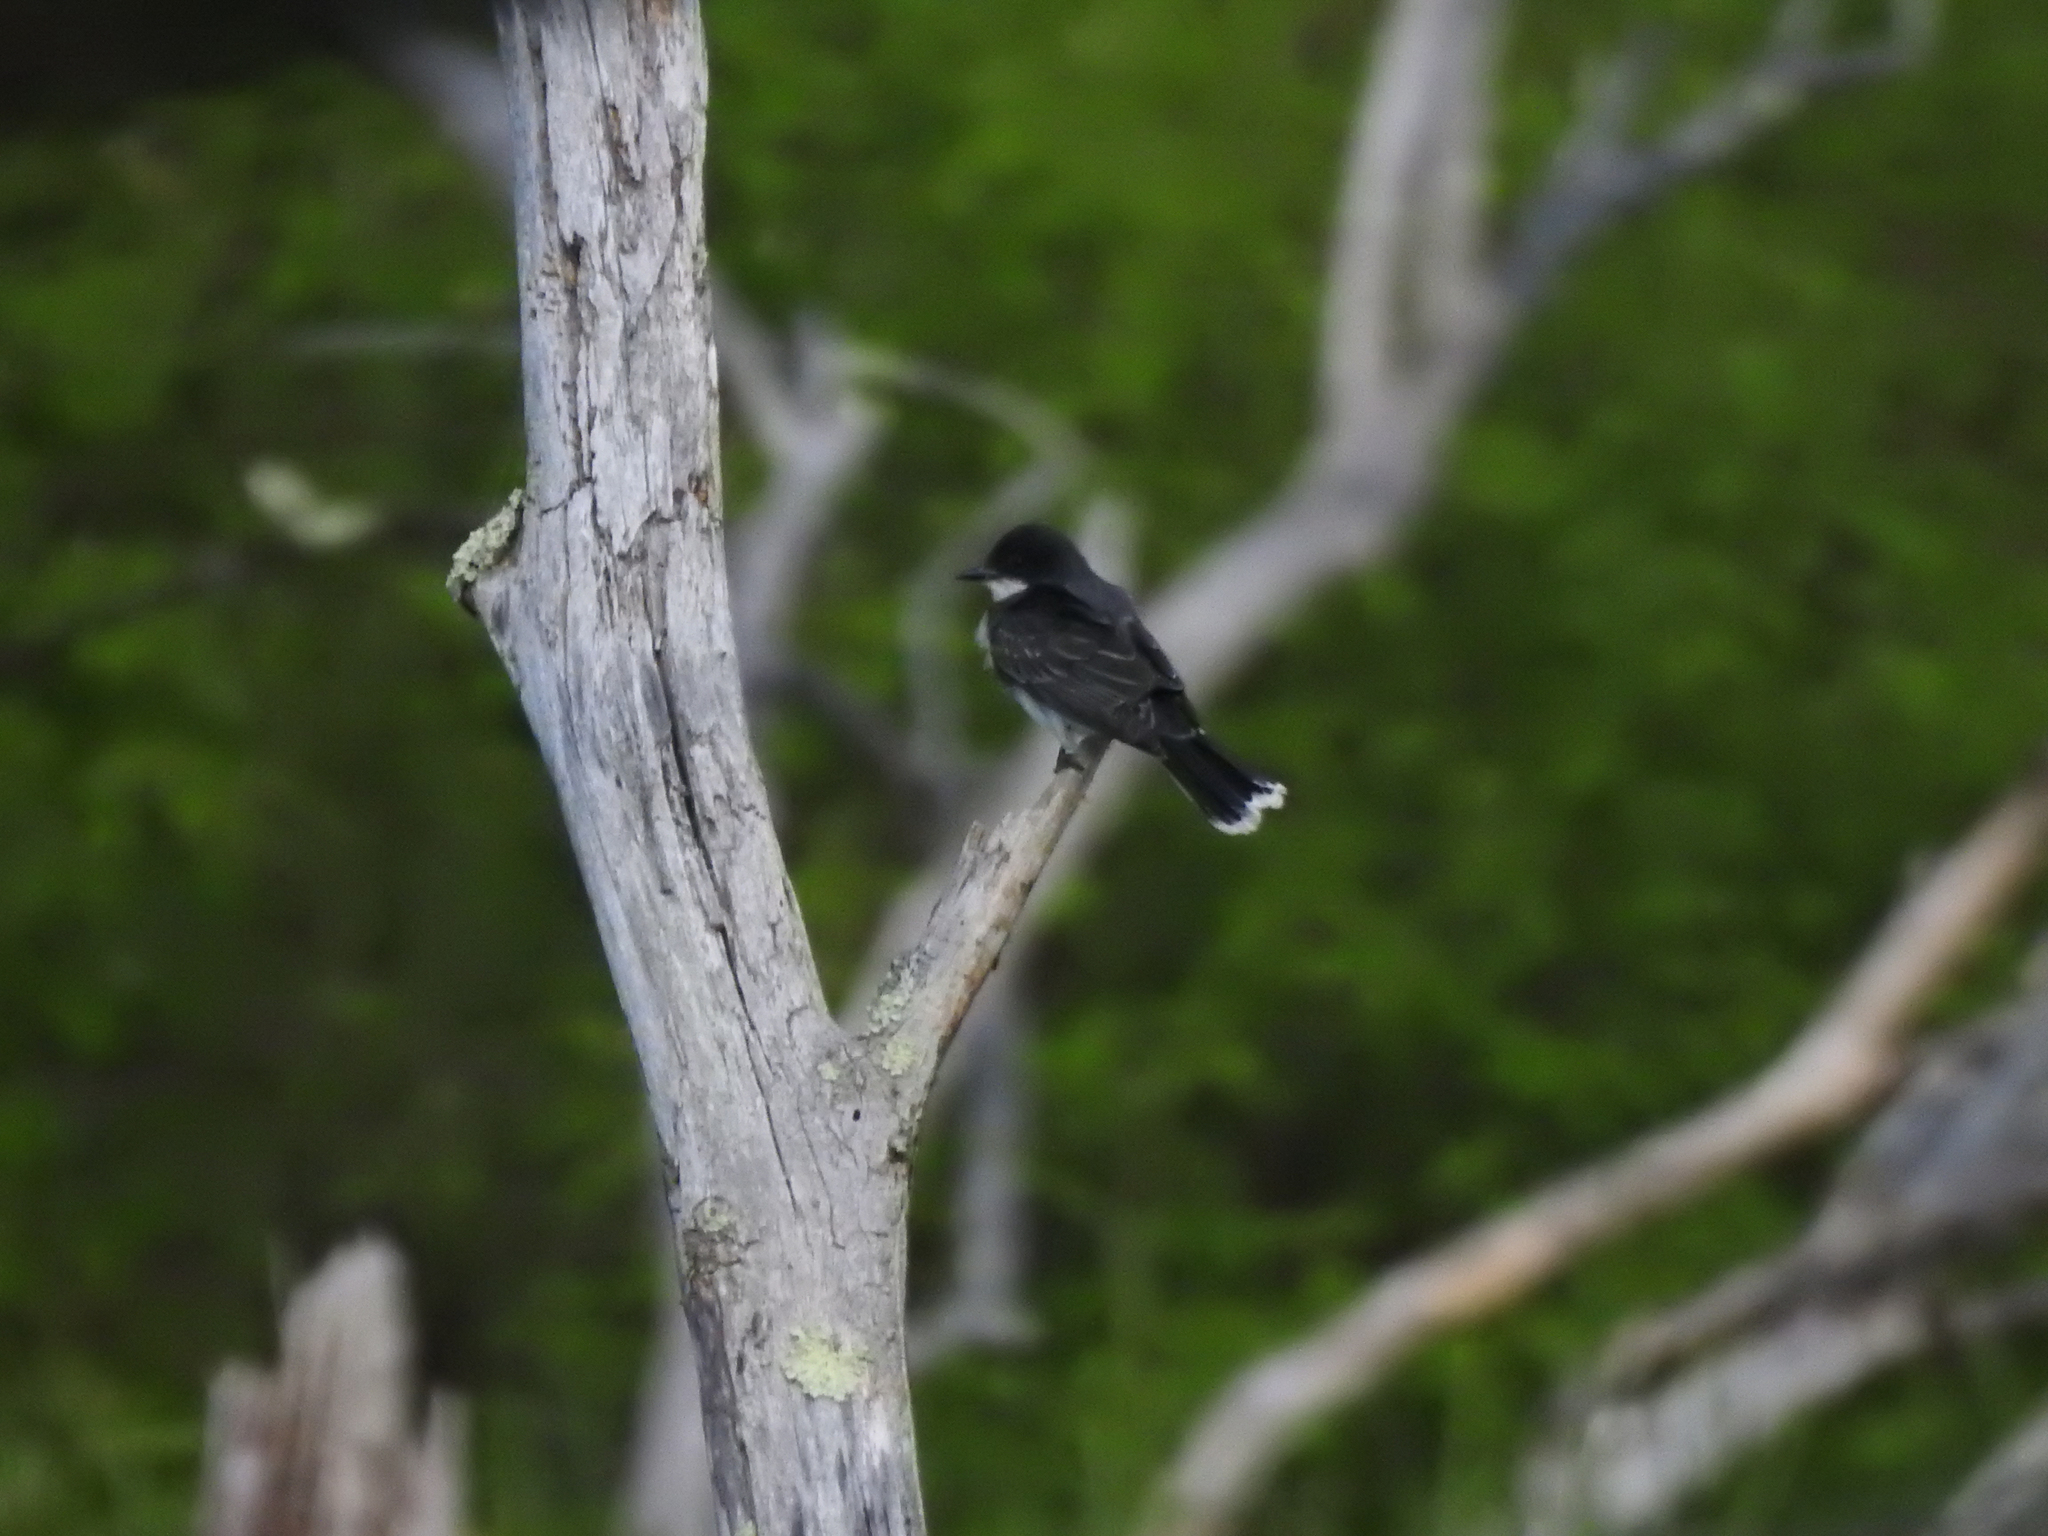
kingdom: Animalia
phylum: Chordata
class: Aves
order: Passeriformes
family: Tyrannidae
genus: Tyrannus
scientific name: Tyrannus tyrannus
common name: Eastern kingbird
